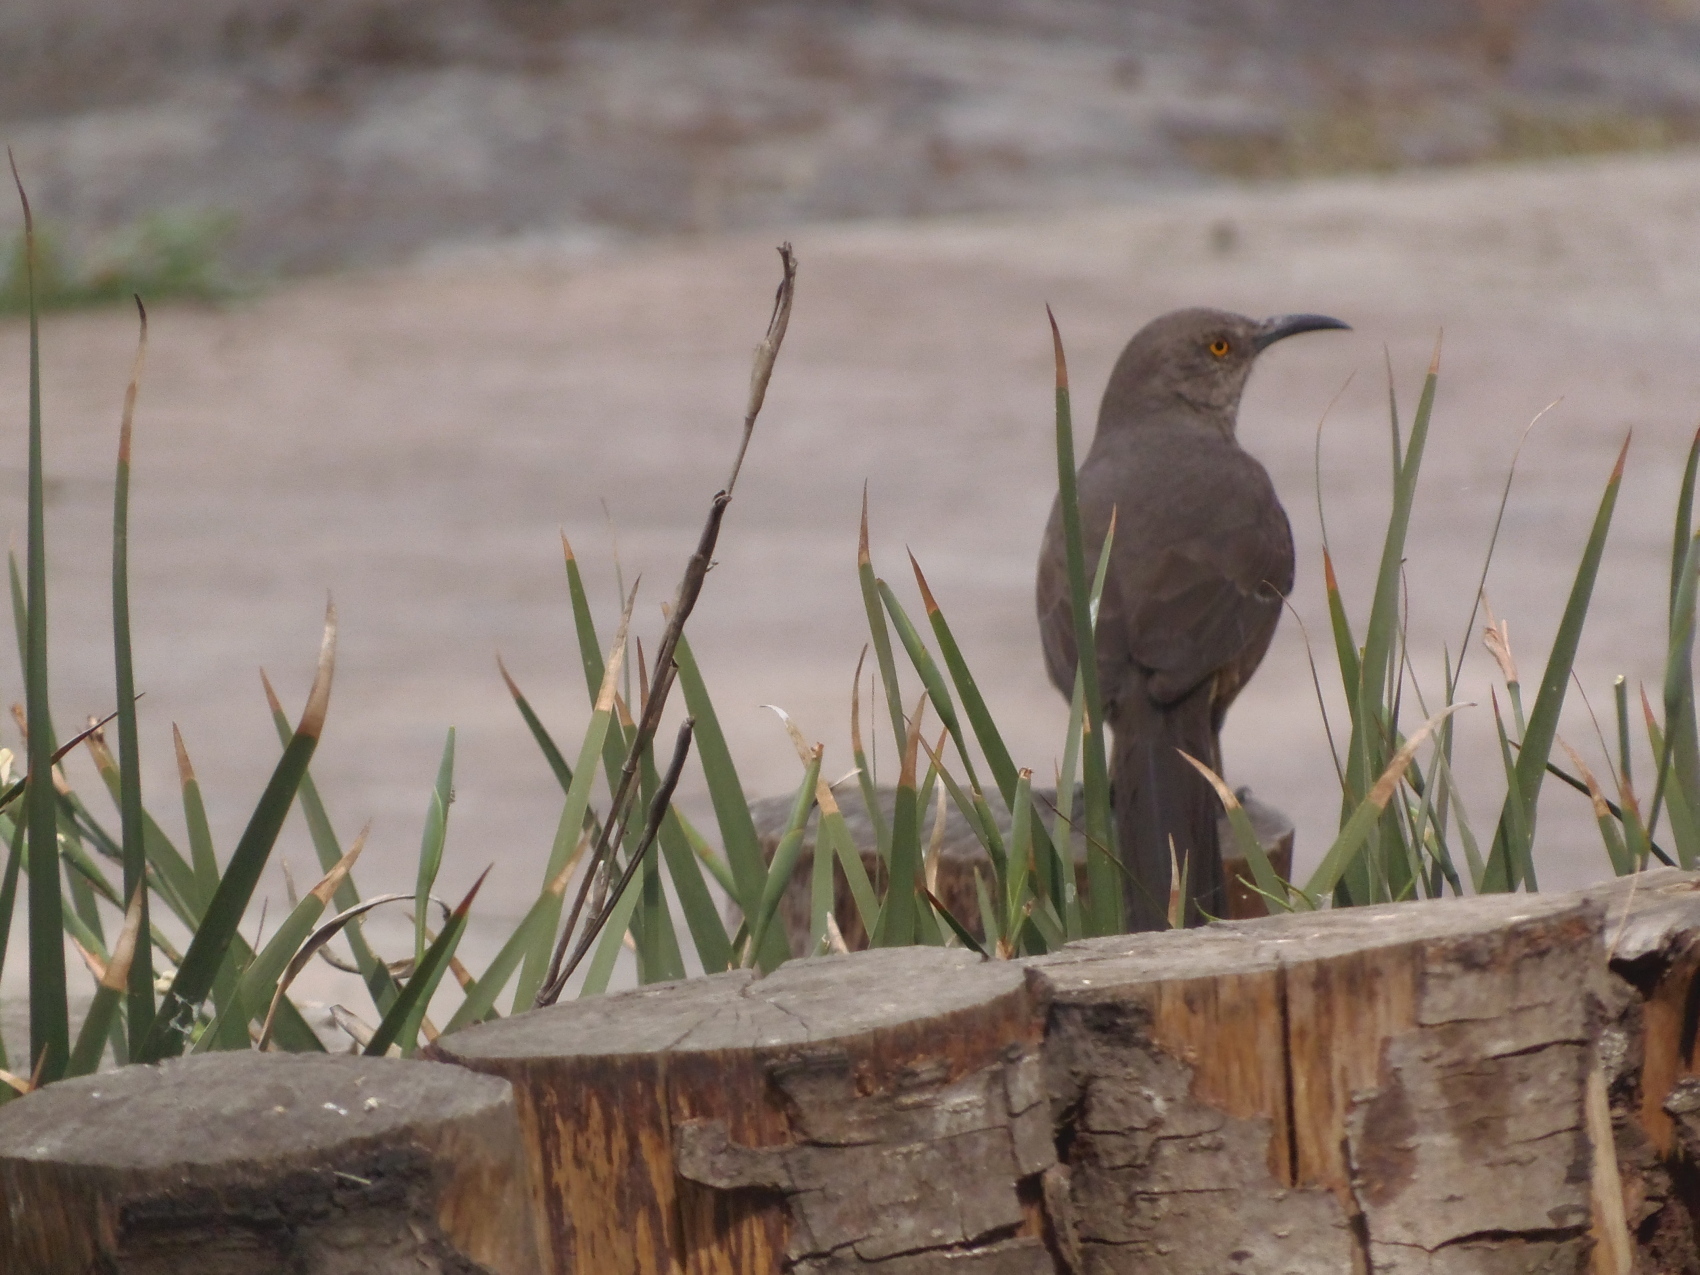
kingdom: Animalia
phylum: Chordata
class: Aves
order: Passeriformes
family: Mimidae
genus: Toxostoma
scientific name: Toxostoma curvirostre
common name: Curve-billed thrasher
